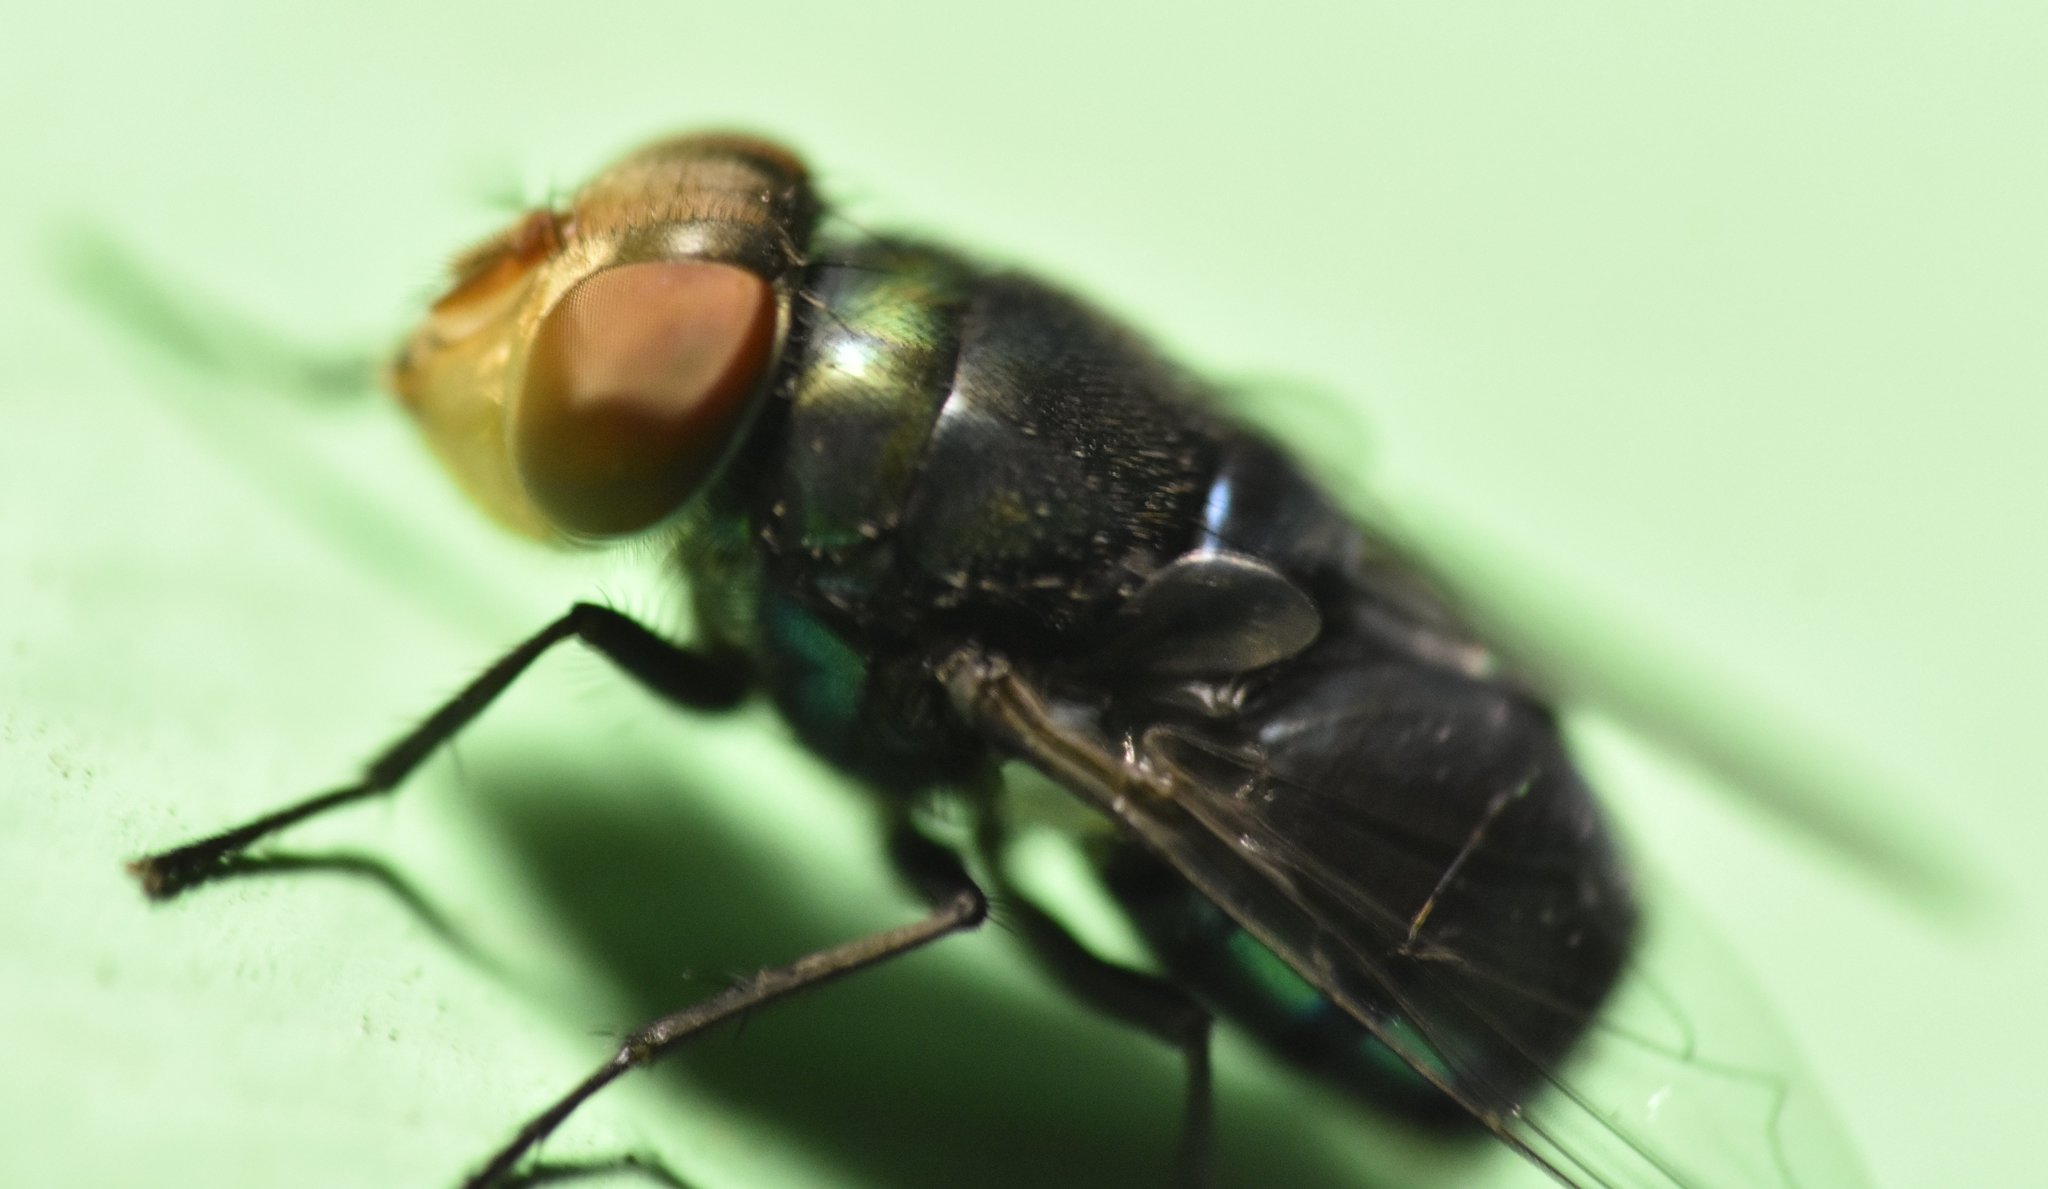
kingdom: Animalia
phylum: Arthropoda
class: Insecta
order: Diptera
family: Calliphoridae
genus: Chrysomya
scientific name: Chrysomya megacephala
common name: Blow fly
